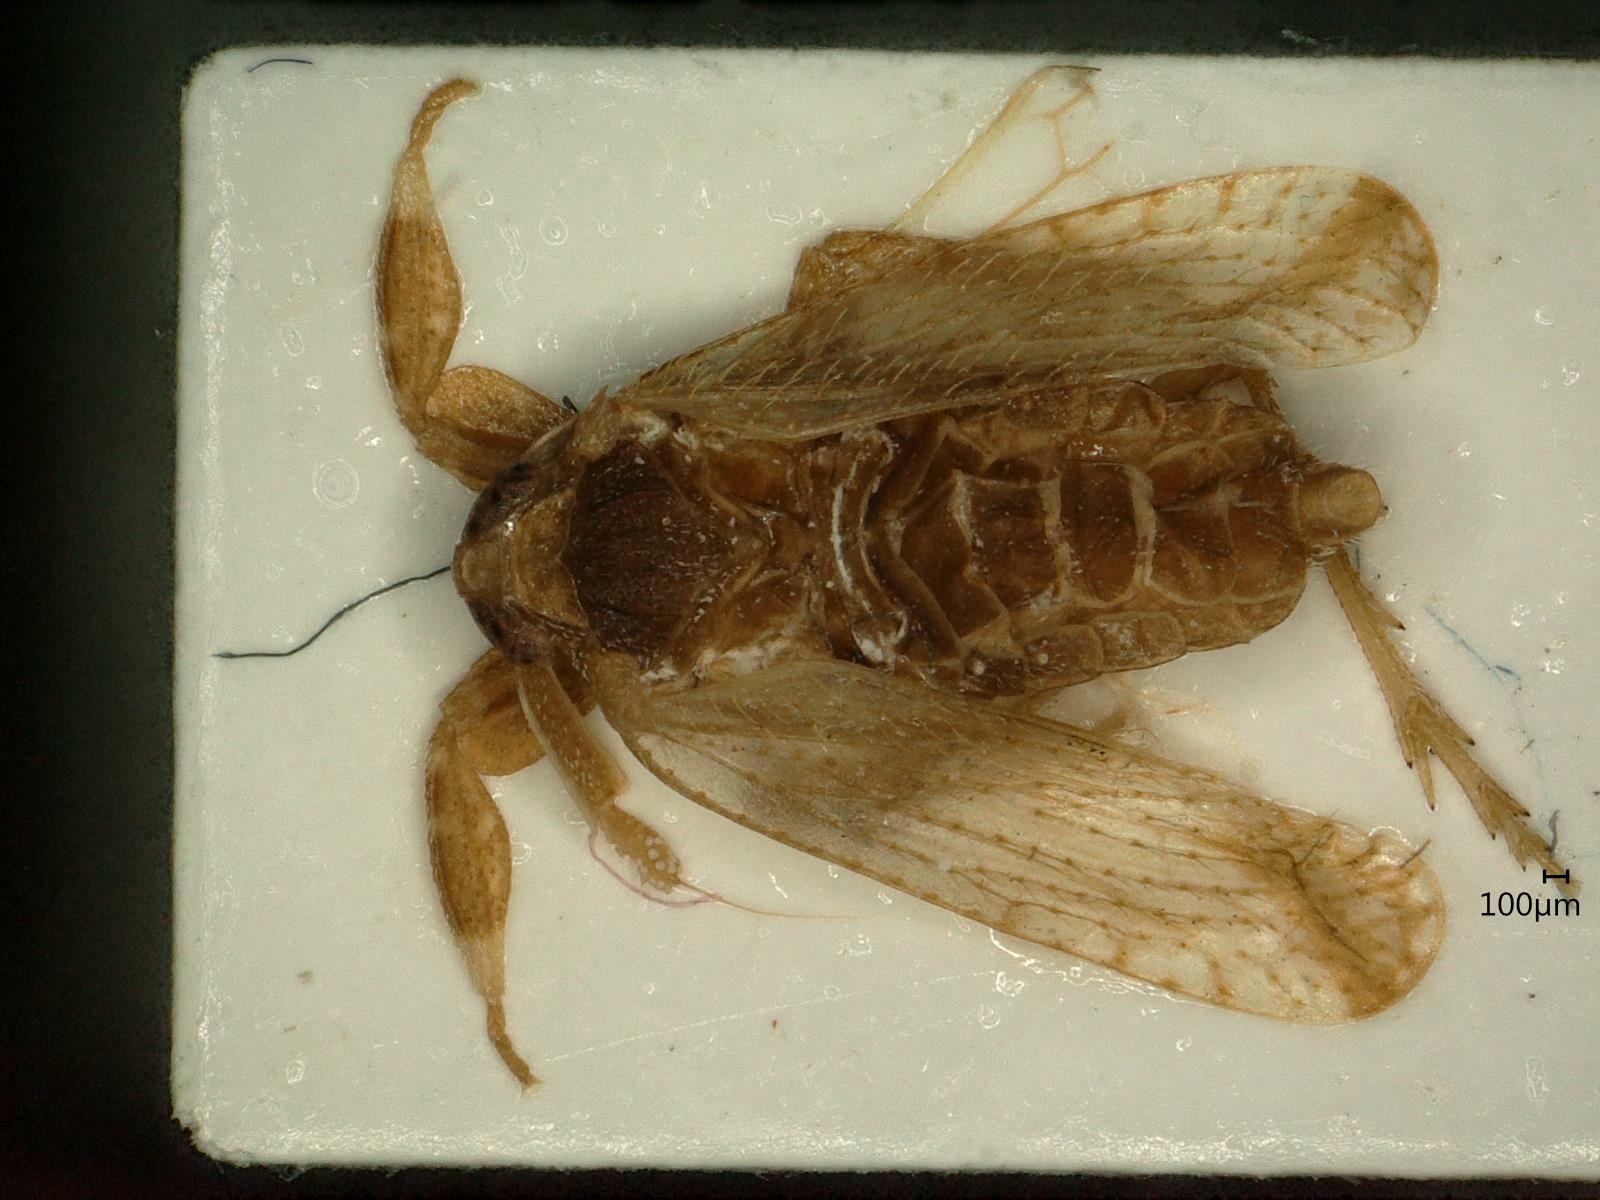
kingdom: Animalia
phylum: Arthropoda
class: Insecta
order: Hemiptera
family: Delphacidae
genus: Asiraca
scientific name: Asiraca clavicornis
